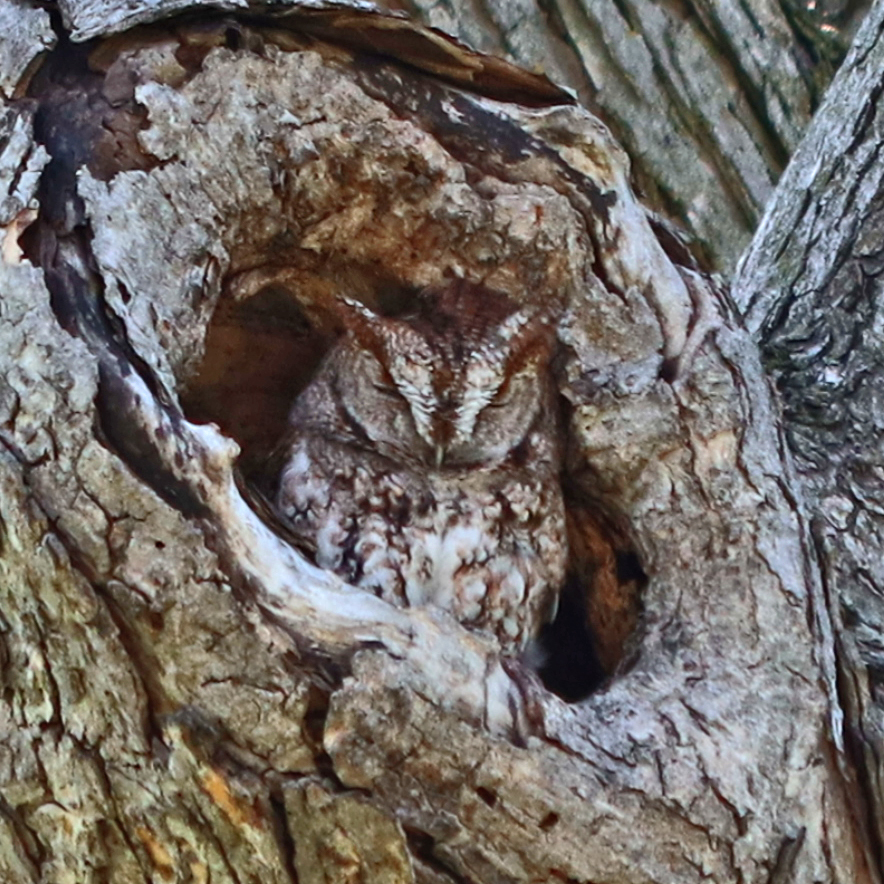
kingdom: Animalia
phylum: Chordata
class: Aves
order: Strigiformes
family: Strigidae
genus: Megascops
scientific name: Megascops asio
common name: Eastern screech-owl
